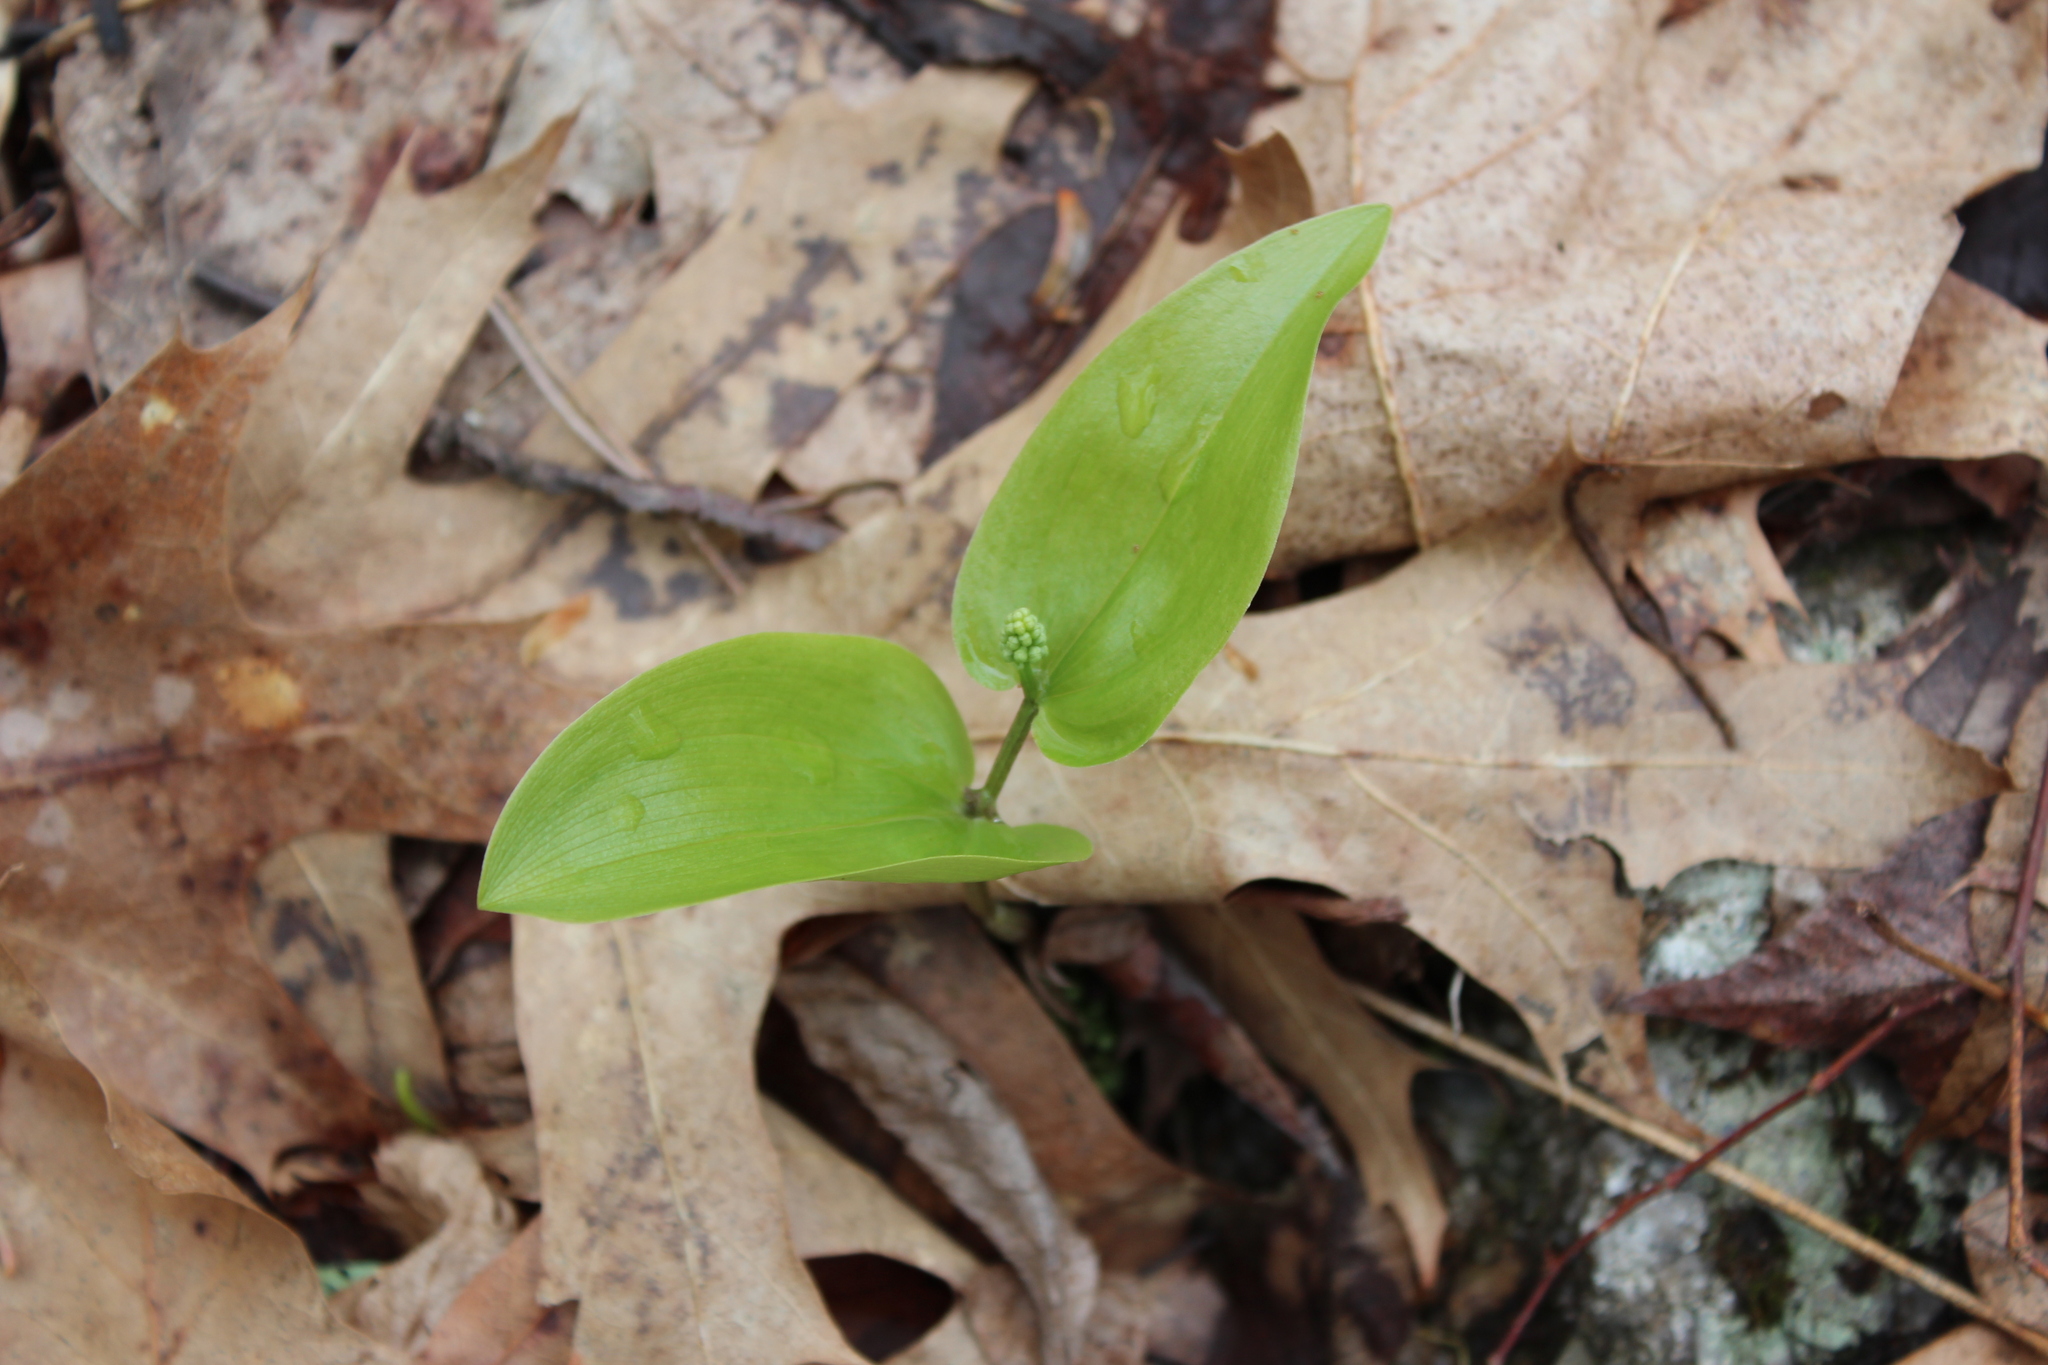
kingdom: Plantae
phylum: Tracheophyta
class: Liliopsida
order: Asparagales
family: Asparagaceae
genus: Maianthemum
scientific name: Maianthemum canadense
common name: False lily-of-the-valley
